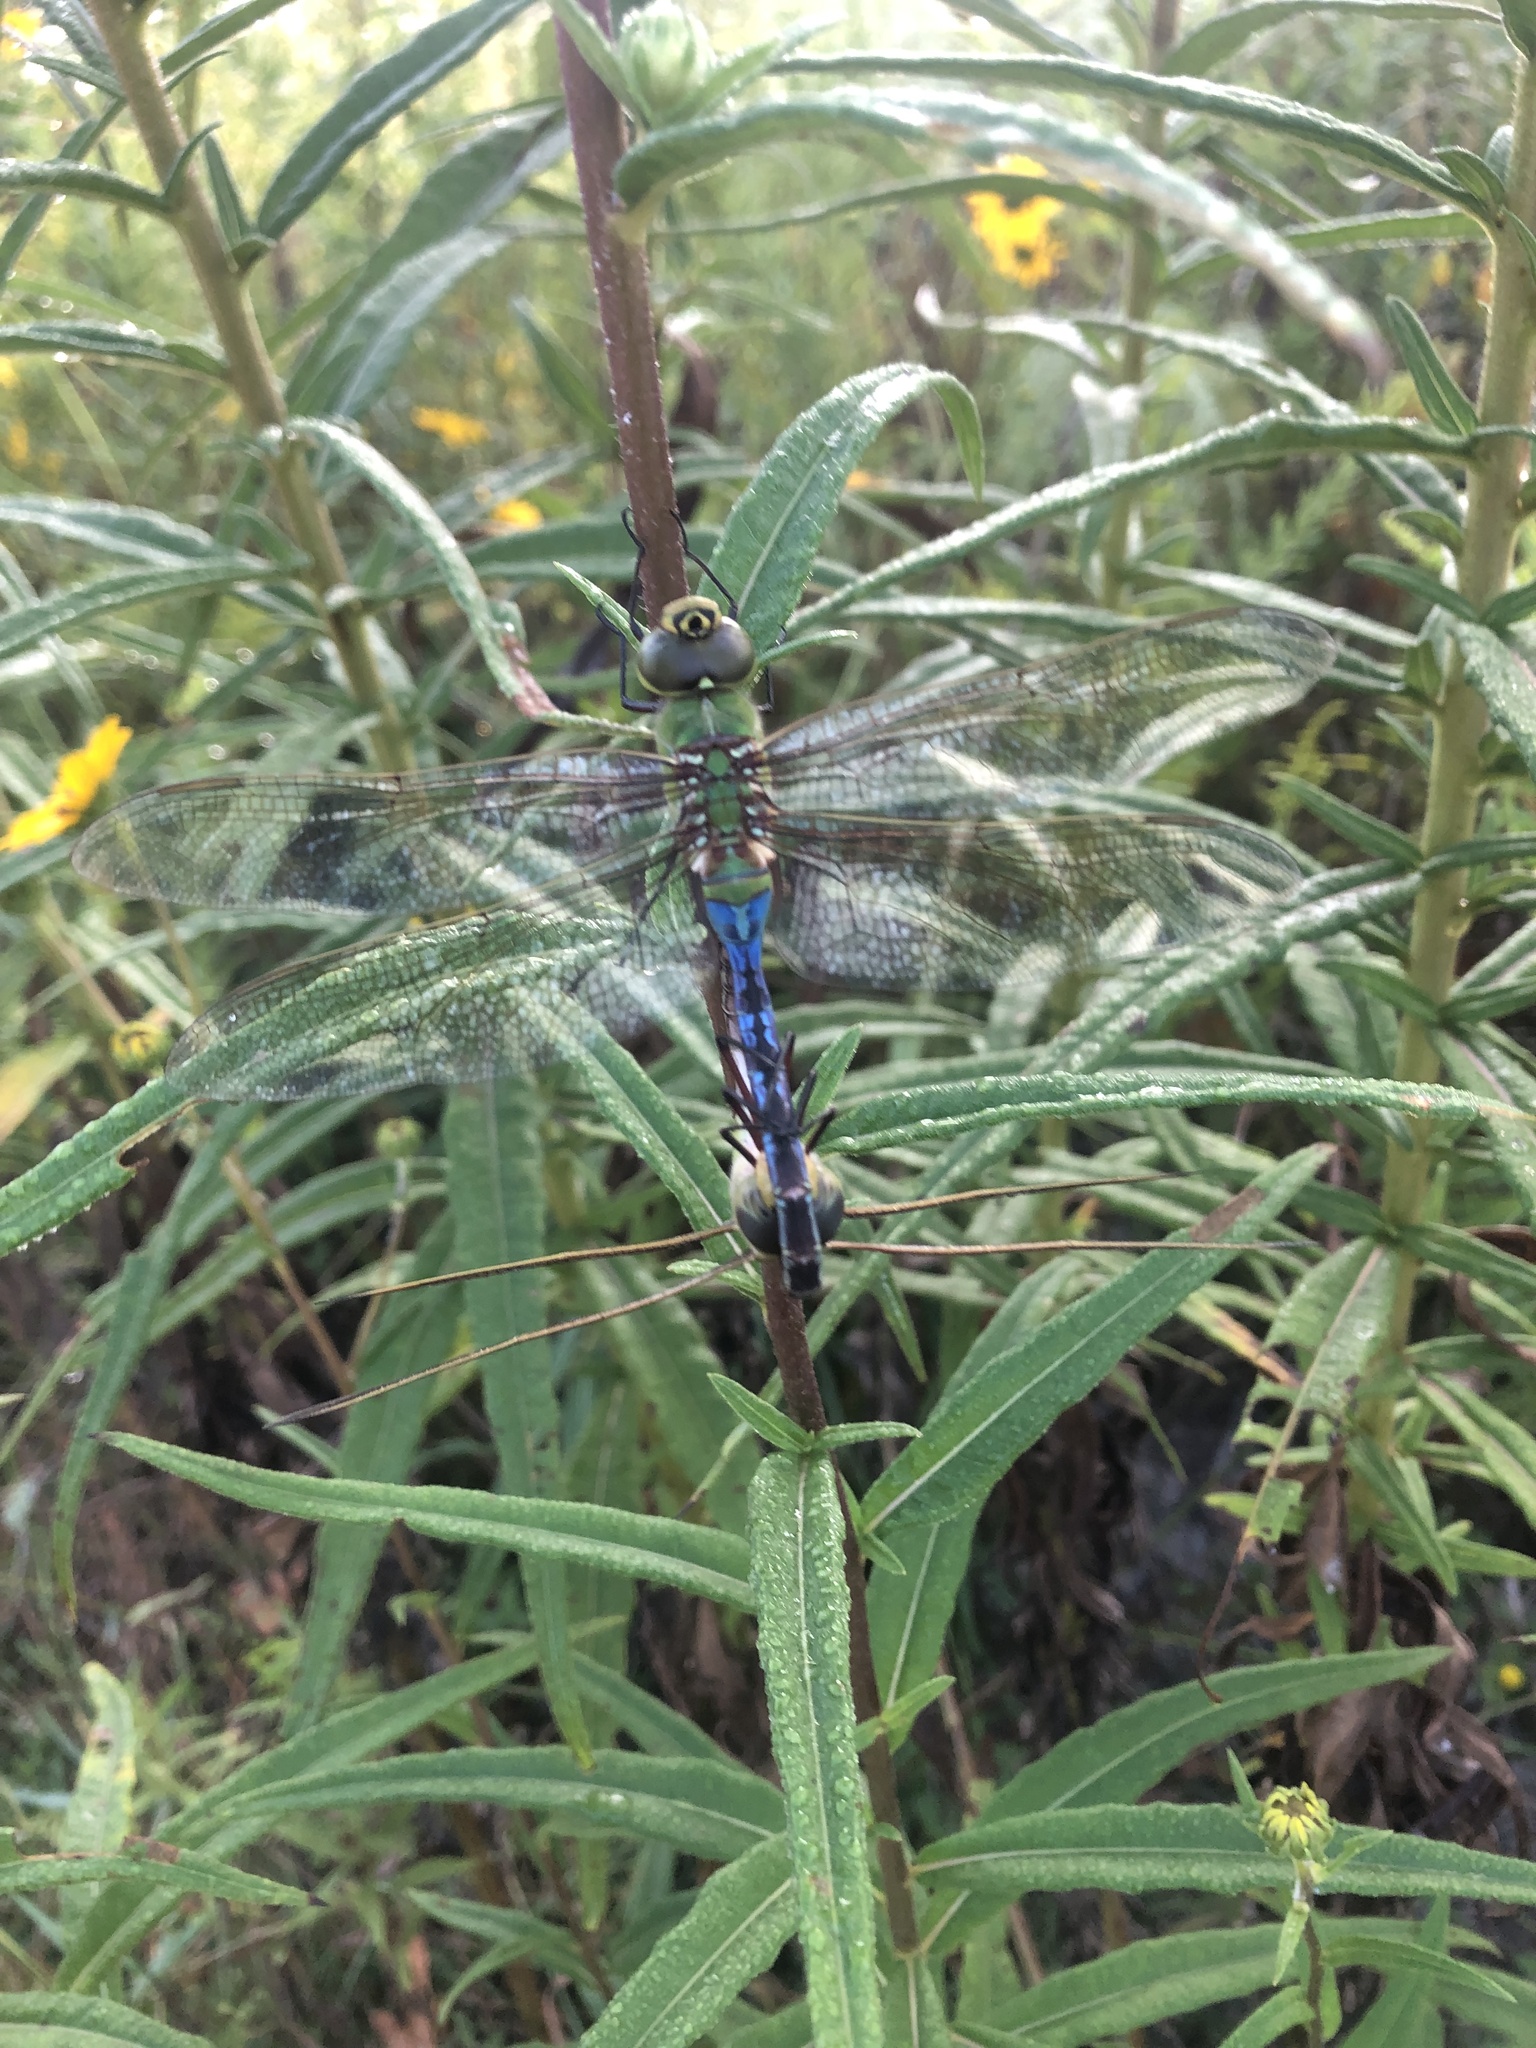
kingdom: Animalia
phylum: Arthropoda
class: Insecta
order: Odonata
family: Aeshnidae
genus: Anax
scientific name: Anax junius
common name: Common green darner
